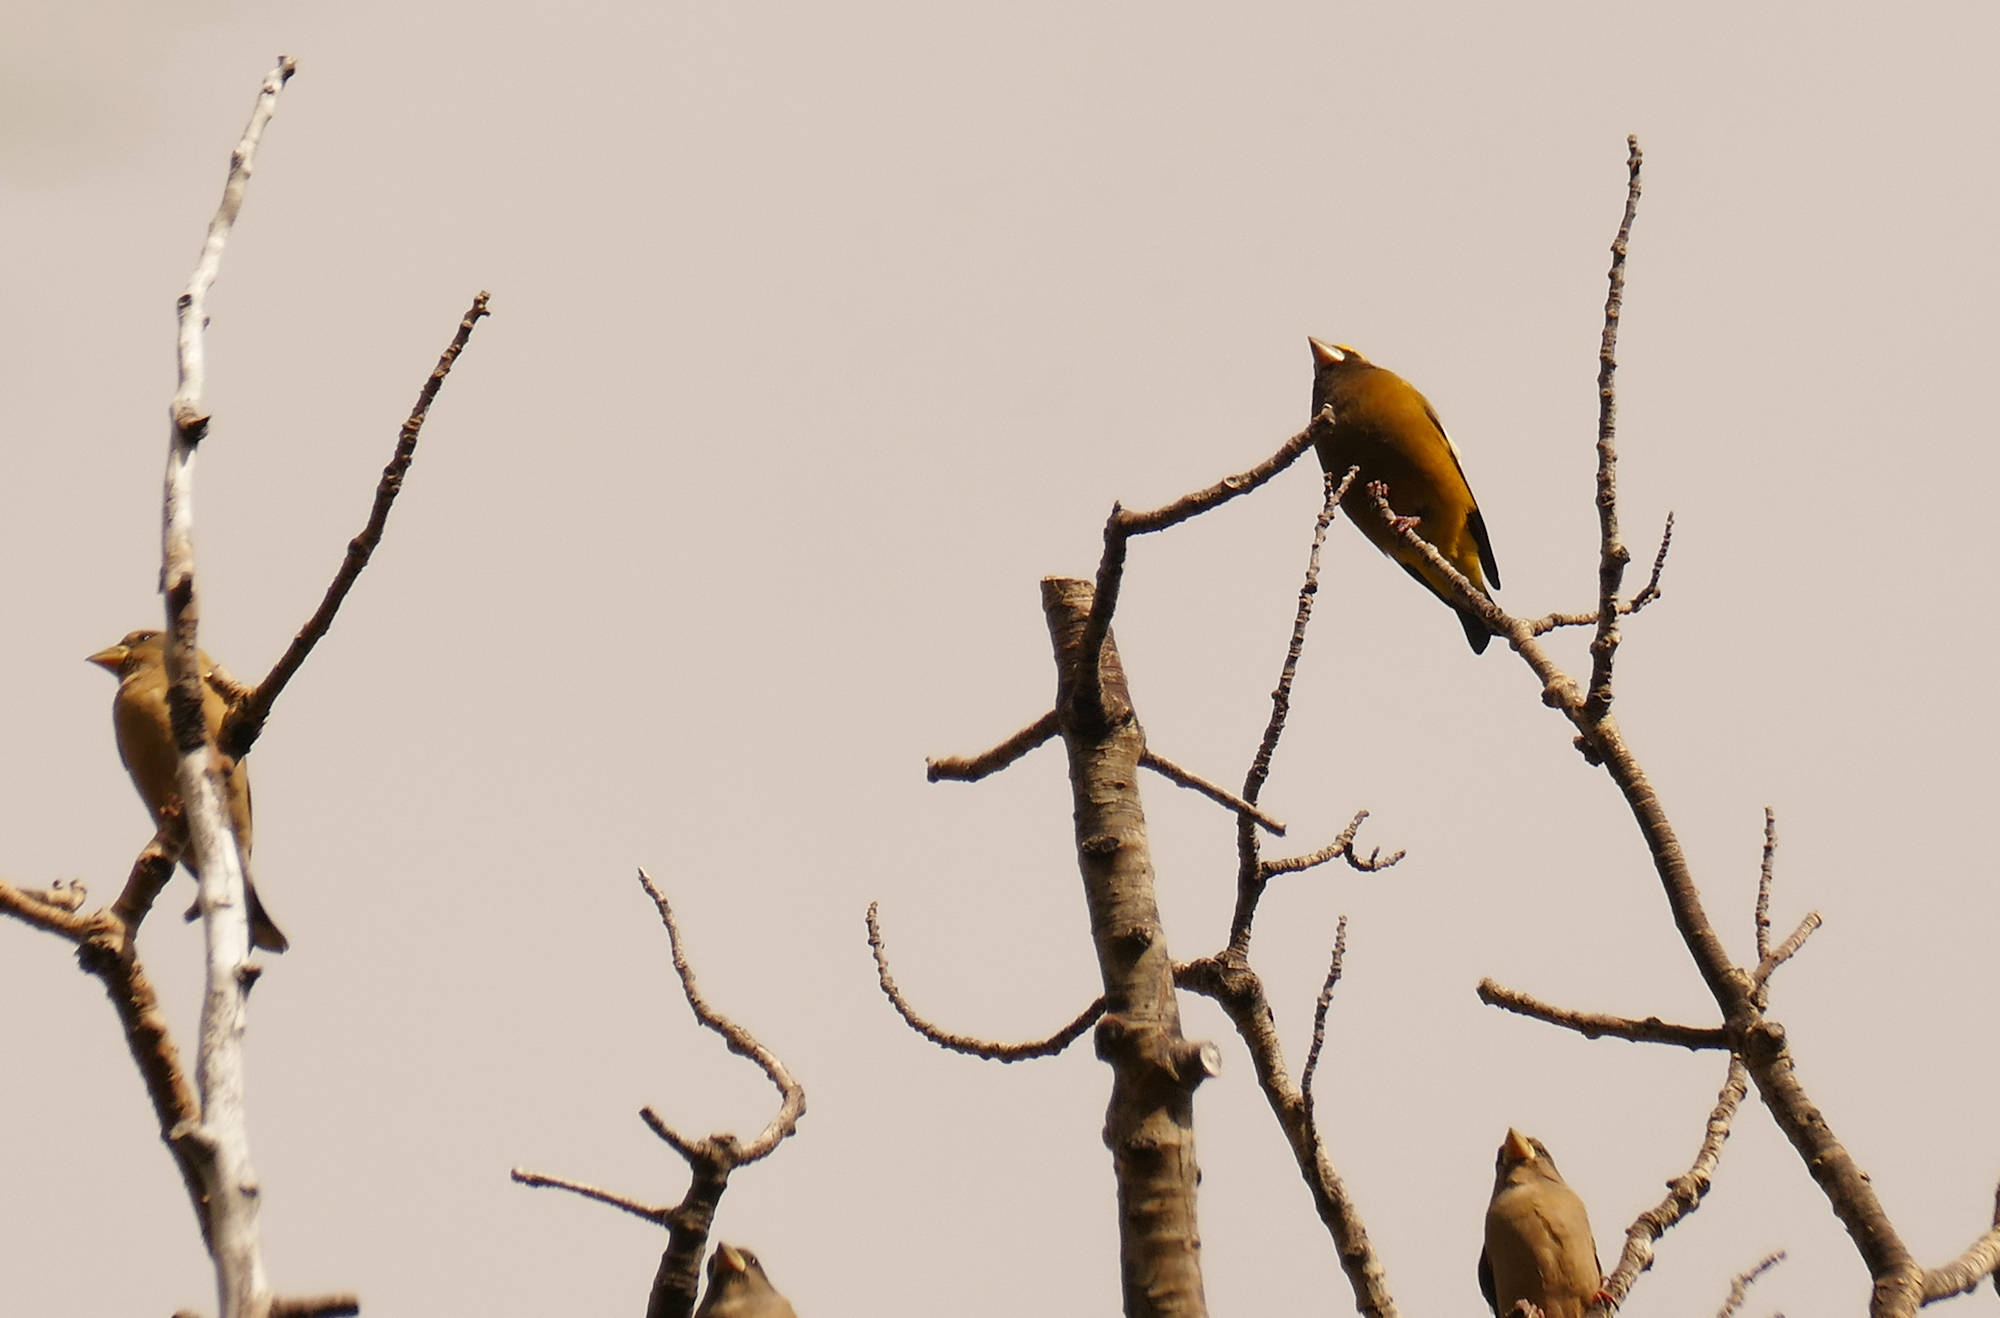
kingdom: Animalia
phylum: Chordata
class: Aves
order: Passeriformes
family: Fringillidae
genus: Hesperiphona
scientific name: Hesperiphona vespertina
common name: Evening grosbeak
